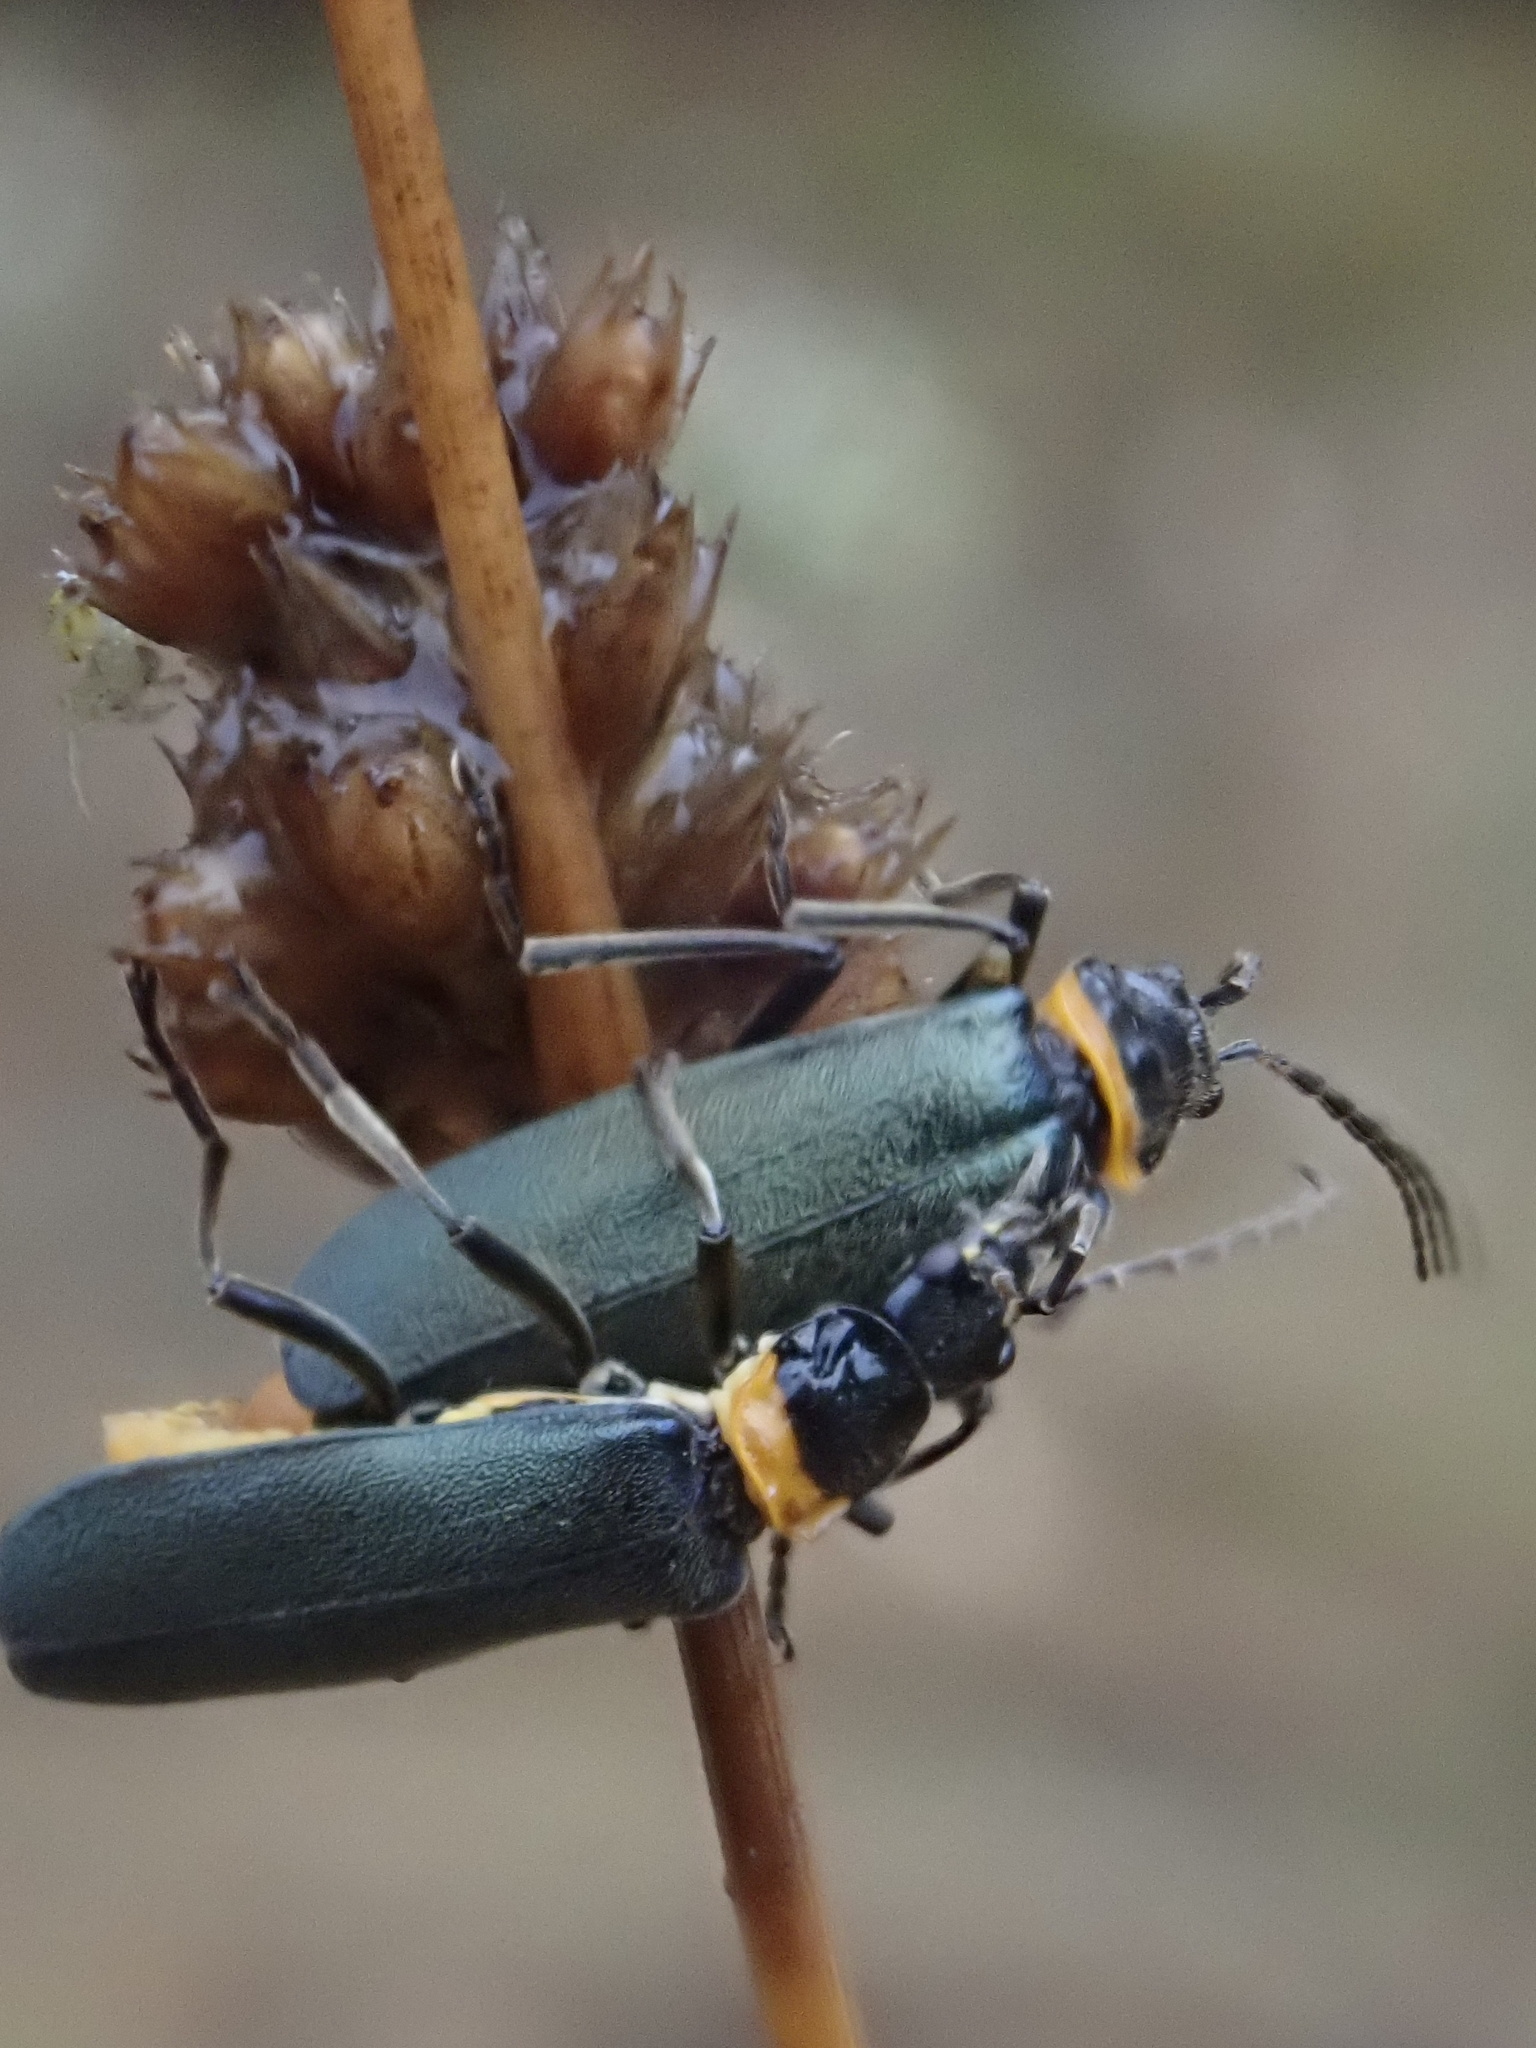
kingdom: Animalia
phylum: Arthropoda
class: Insecta
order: Coleoptera
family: Cantharidae
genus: Chauliognathus
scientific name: Chauliognathus
